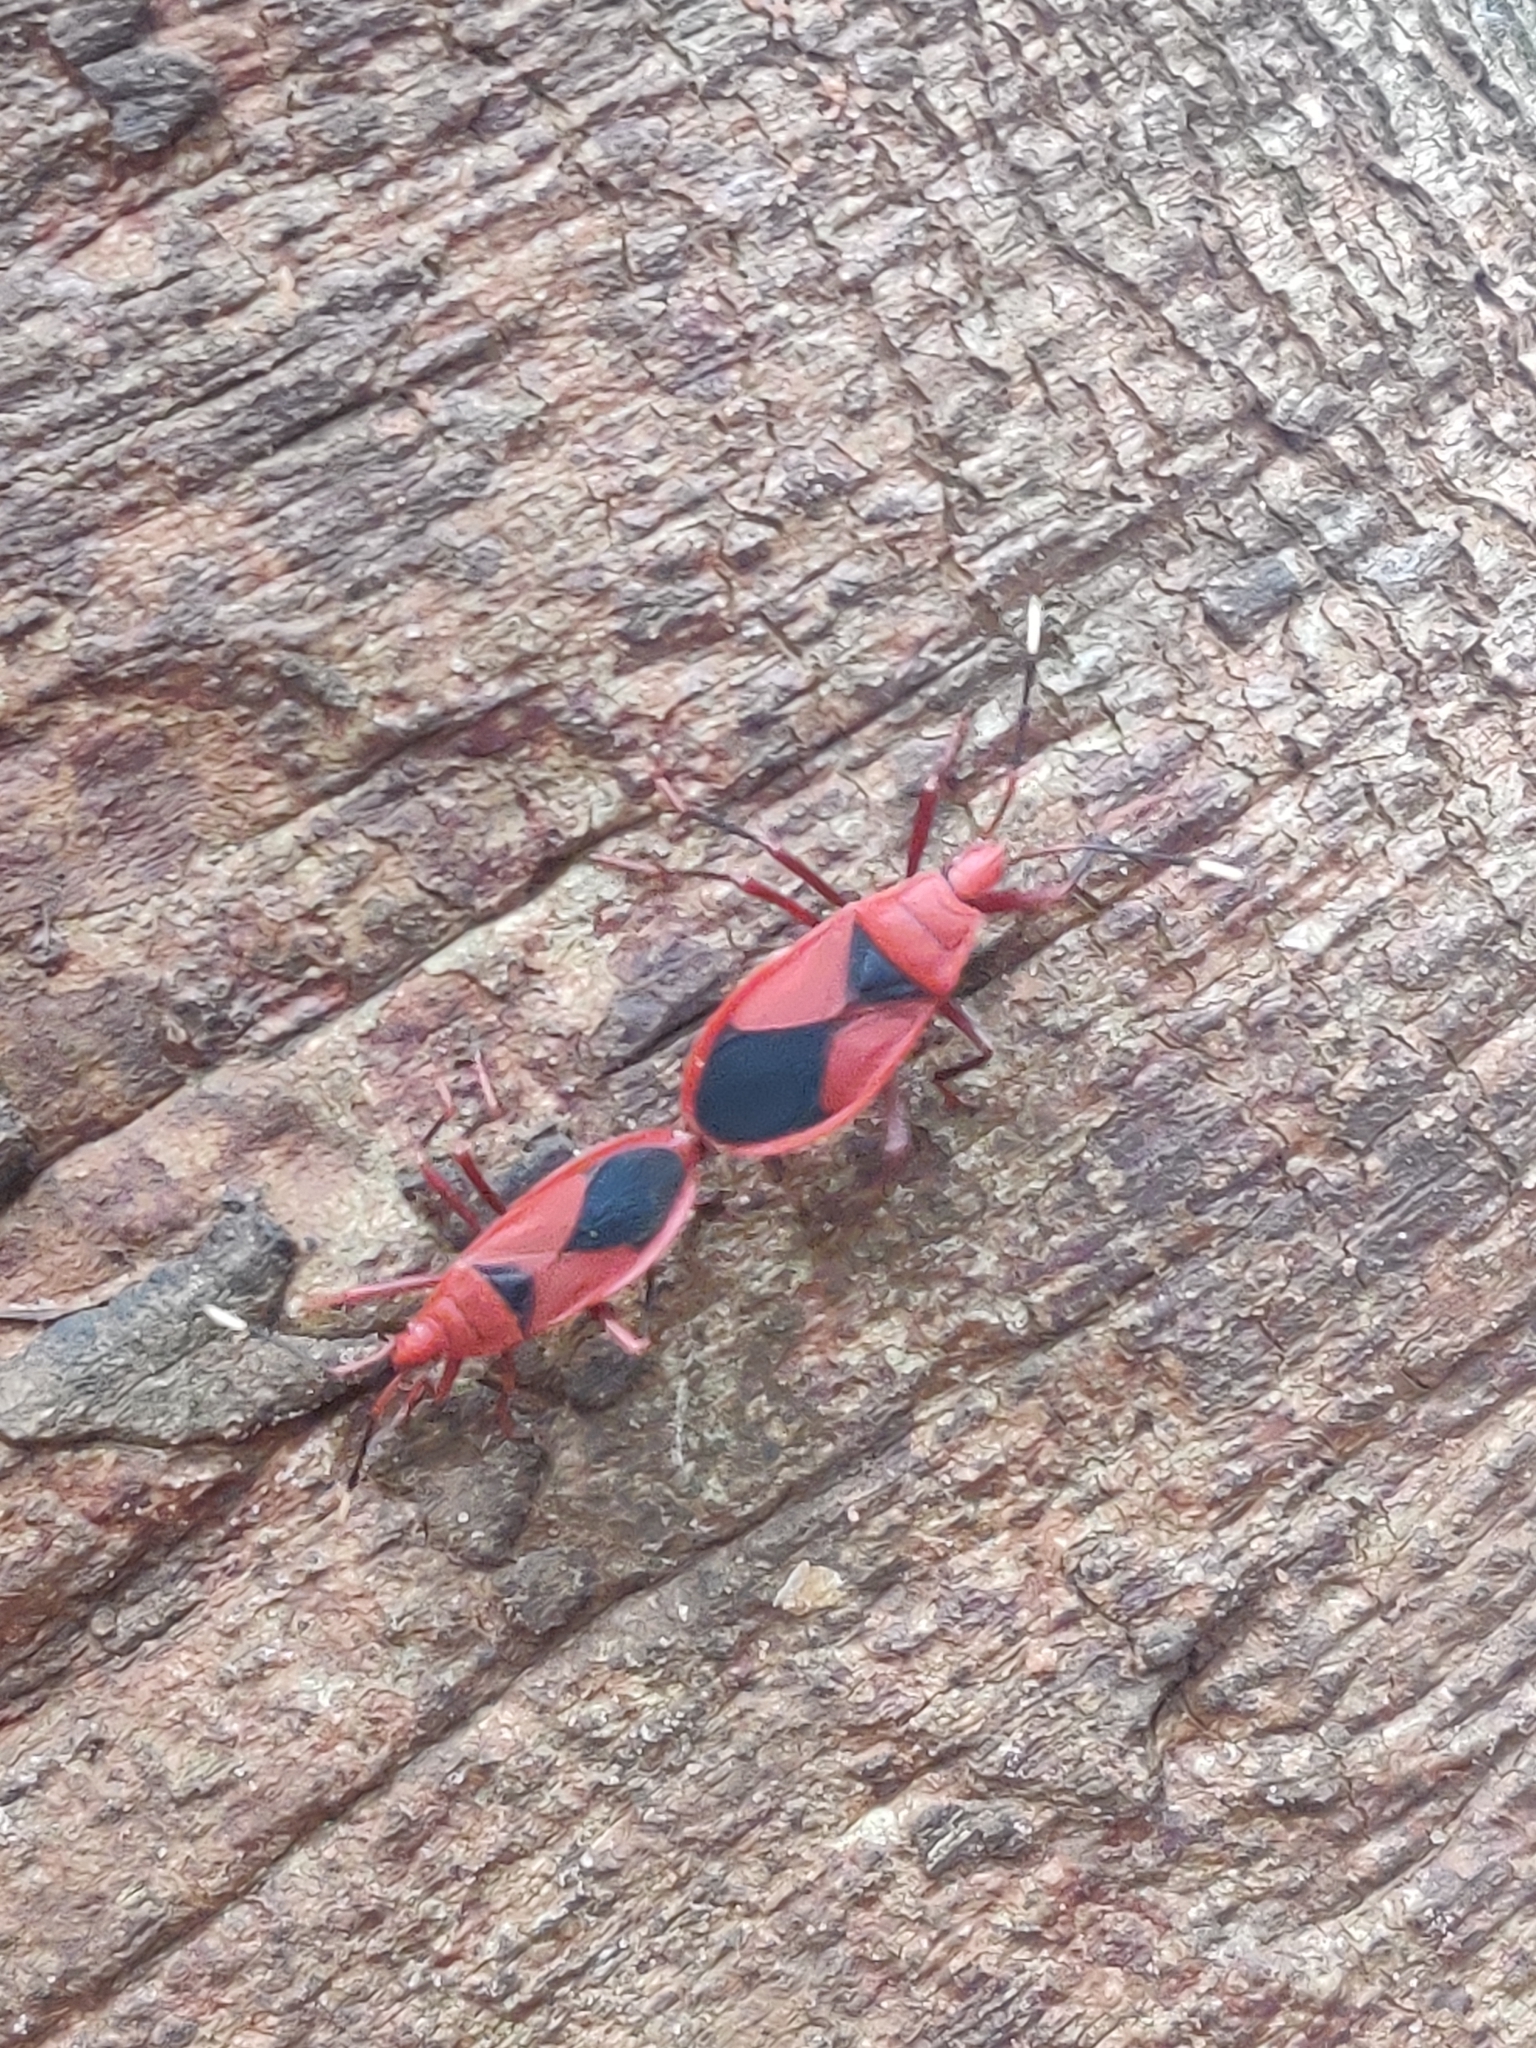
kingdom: Animalia
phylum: Arthropoda
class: Insecta
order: Hemiptera
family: Pyrrhocoridae
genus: Probergrothius
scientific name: Probergrothius
